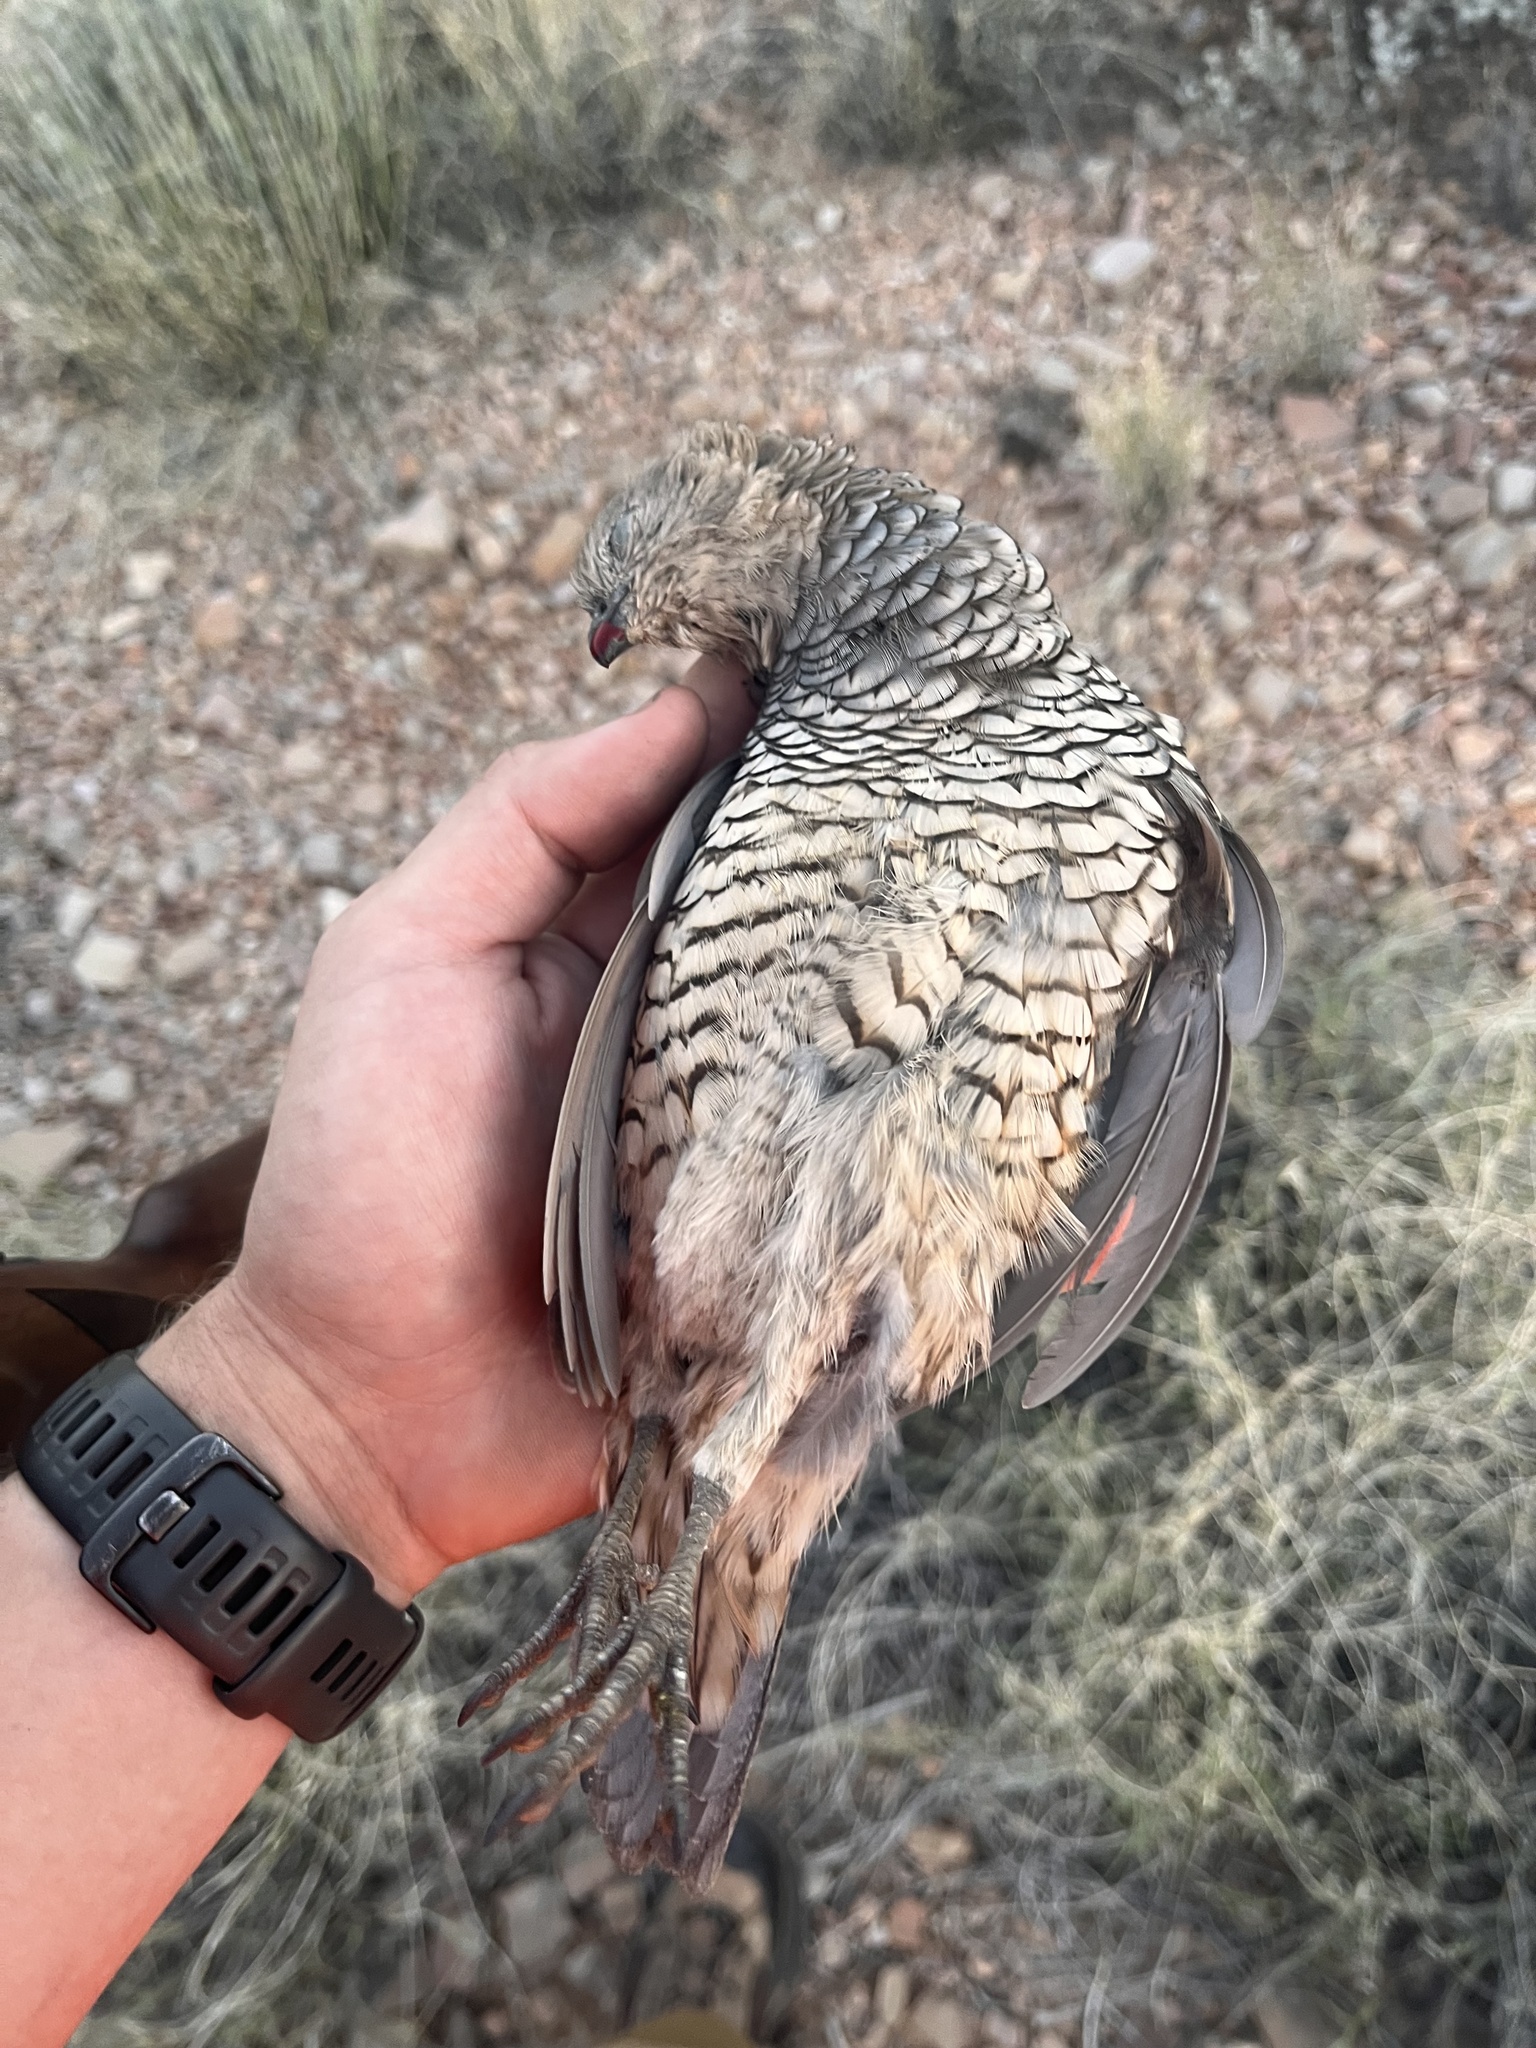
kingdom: Animalia
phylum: Chordata
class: Aves
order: Galliformes
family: Odontophoridae
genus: Callipepla
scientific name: Callipepla squamata
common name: Scaled quail
